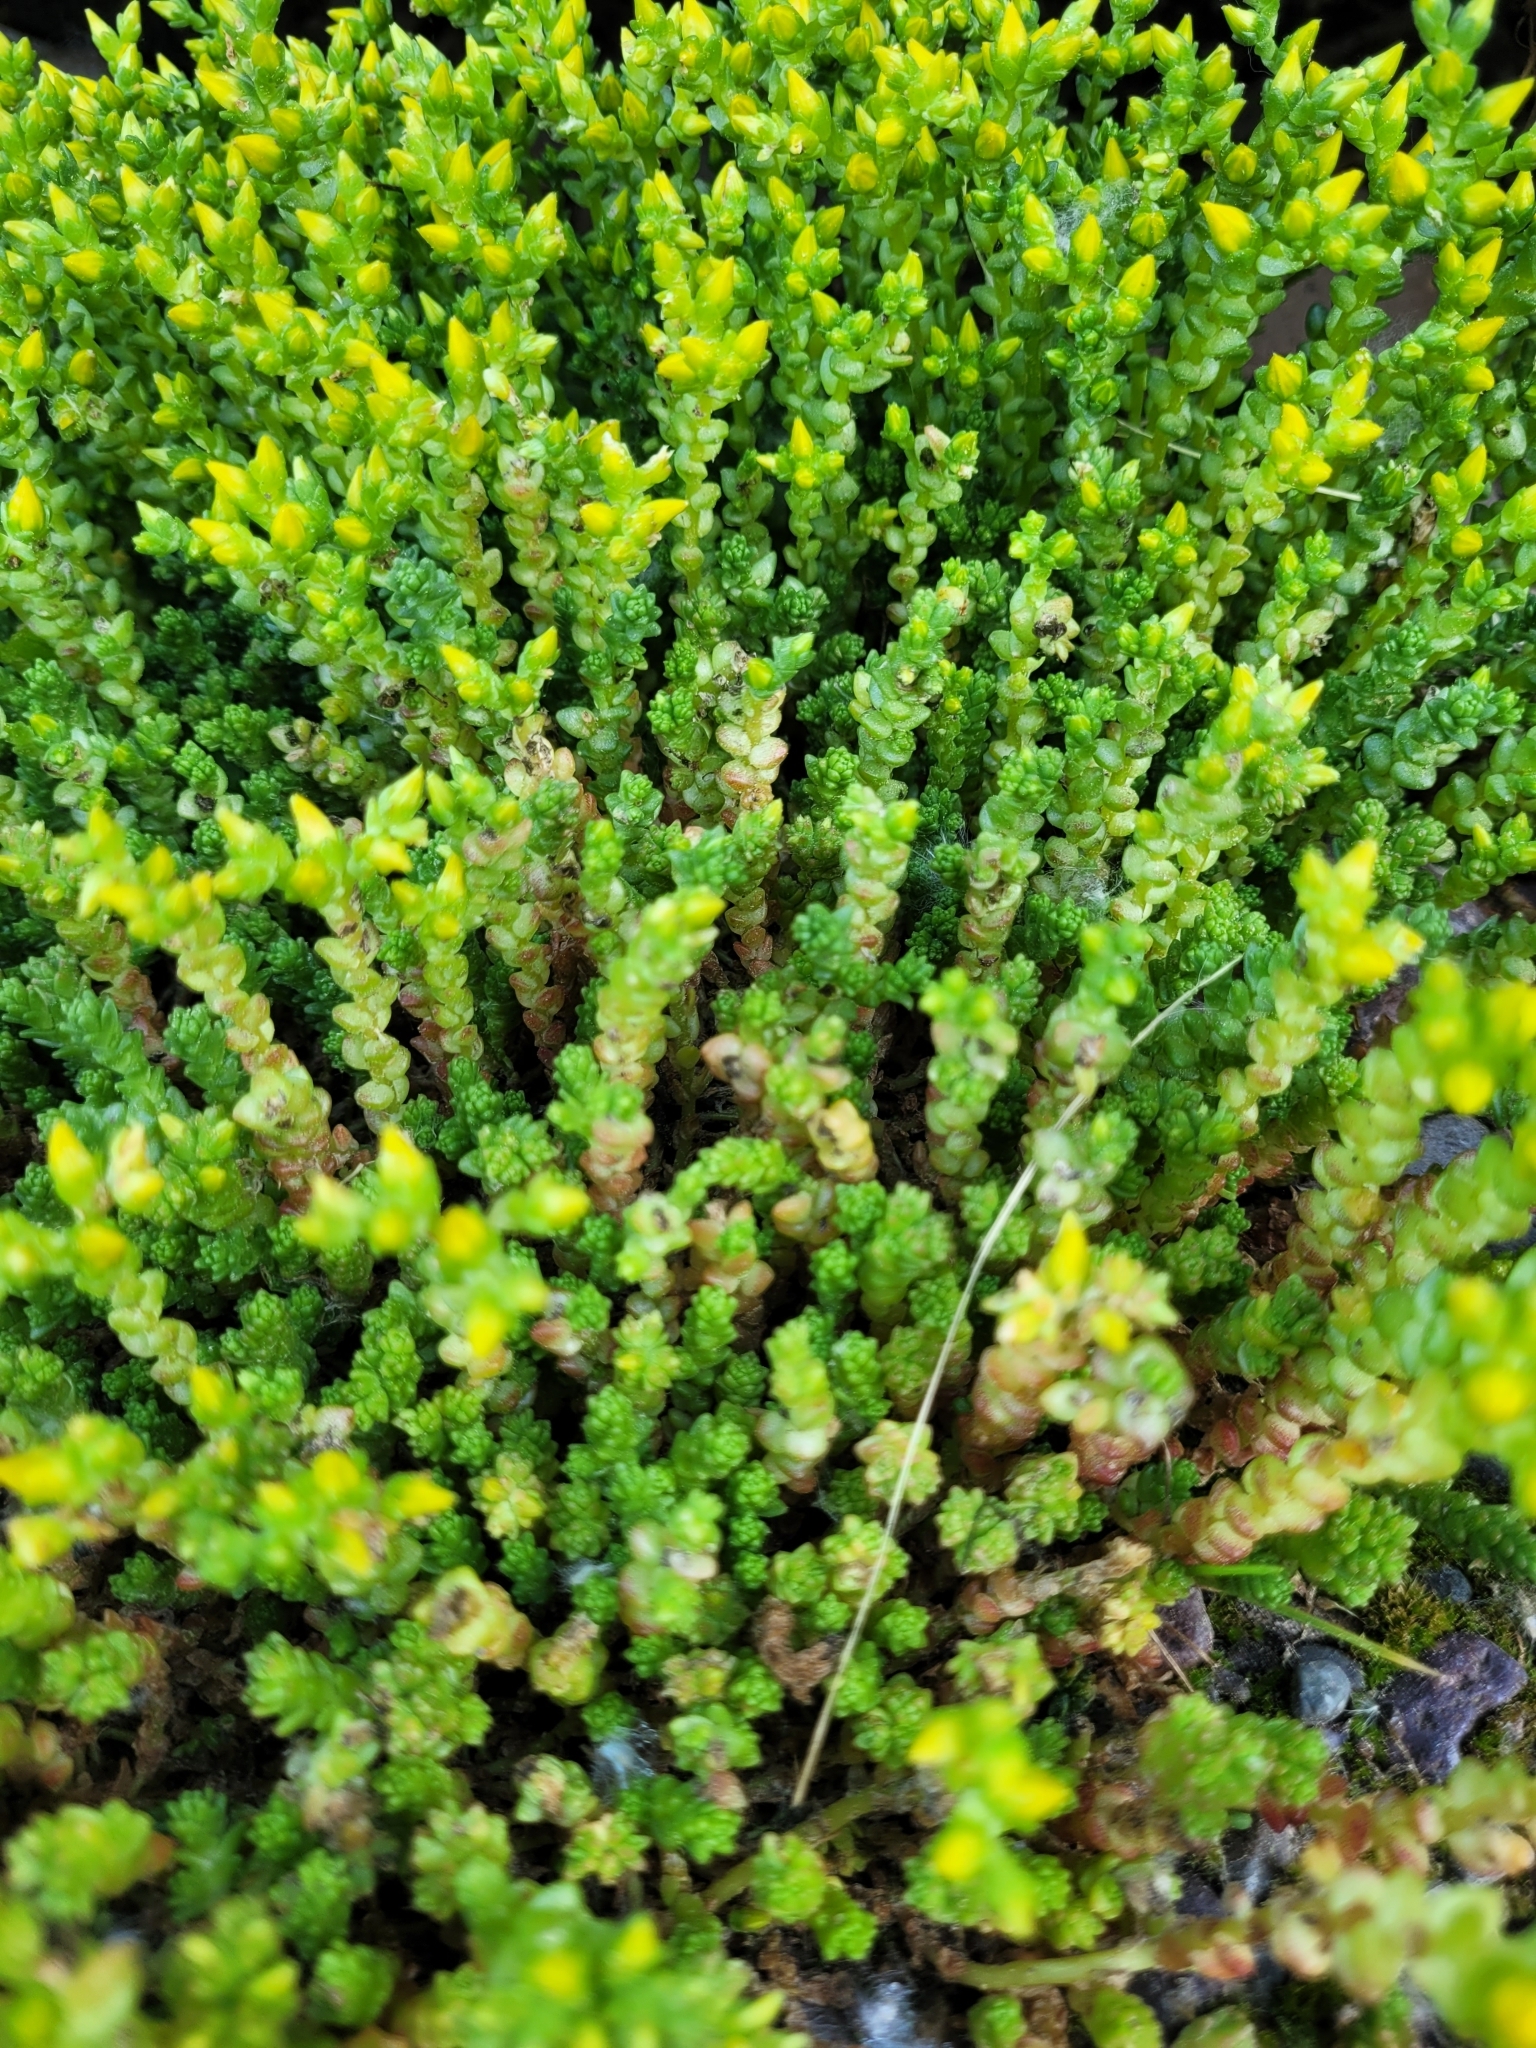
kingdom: Plantae
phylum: Tracheophyta
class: Magnoliopsida
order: Saxifragales
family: Crassulaceae
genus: Sedum
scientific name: Sedum acre
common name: Biting stonecrop
